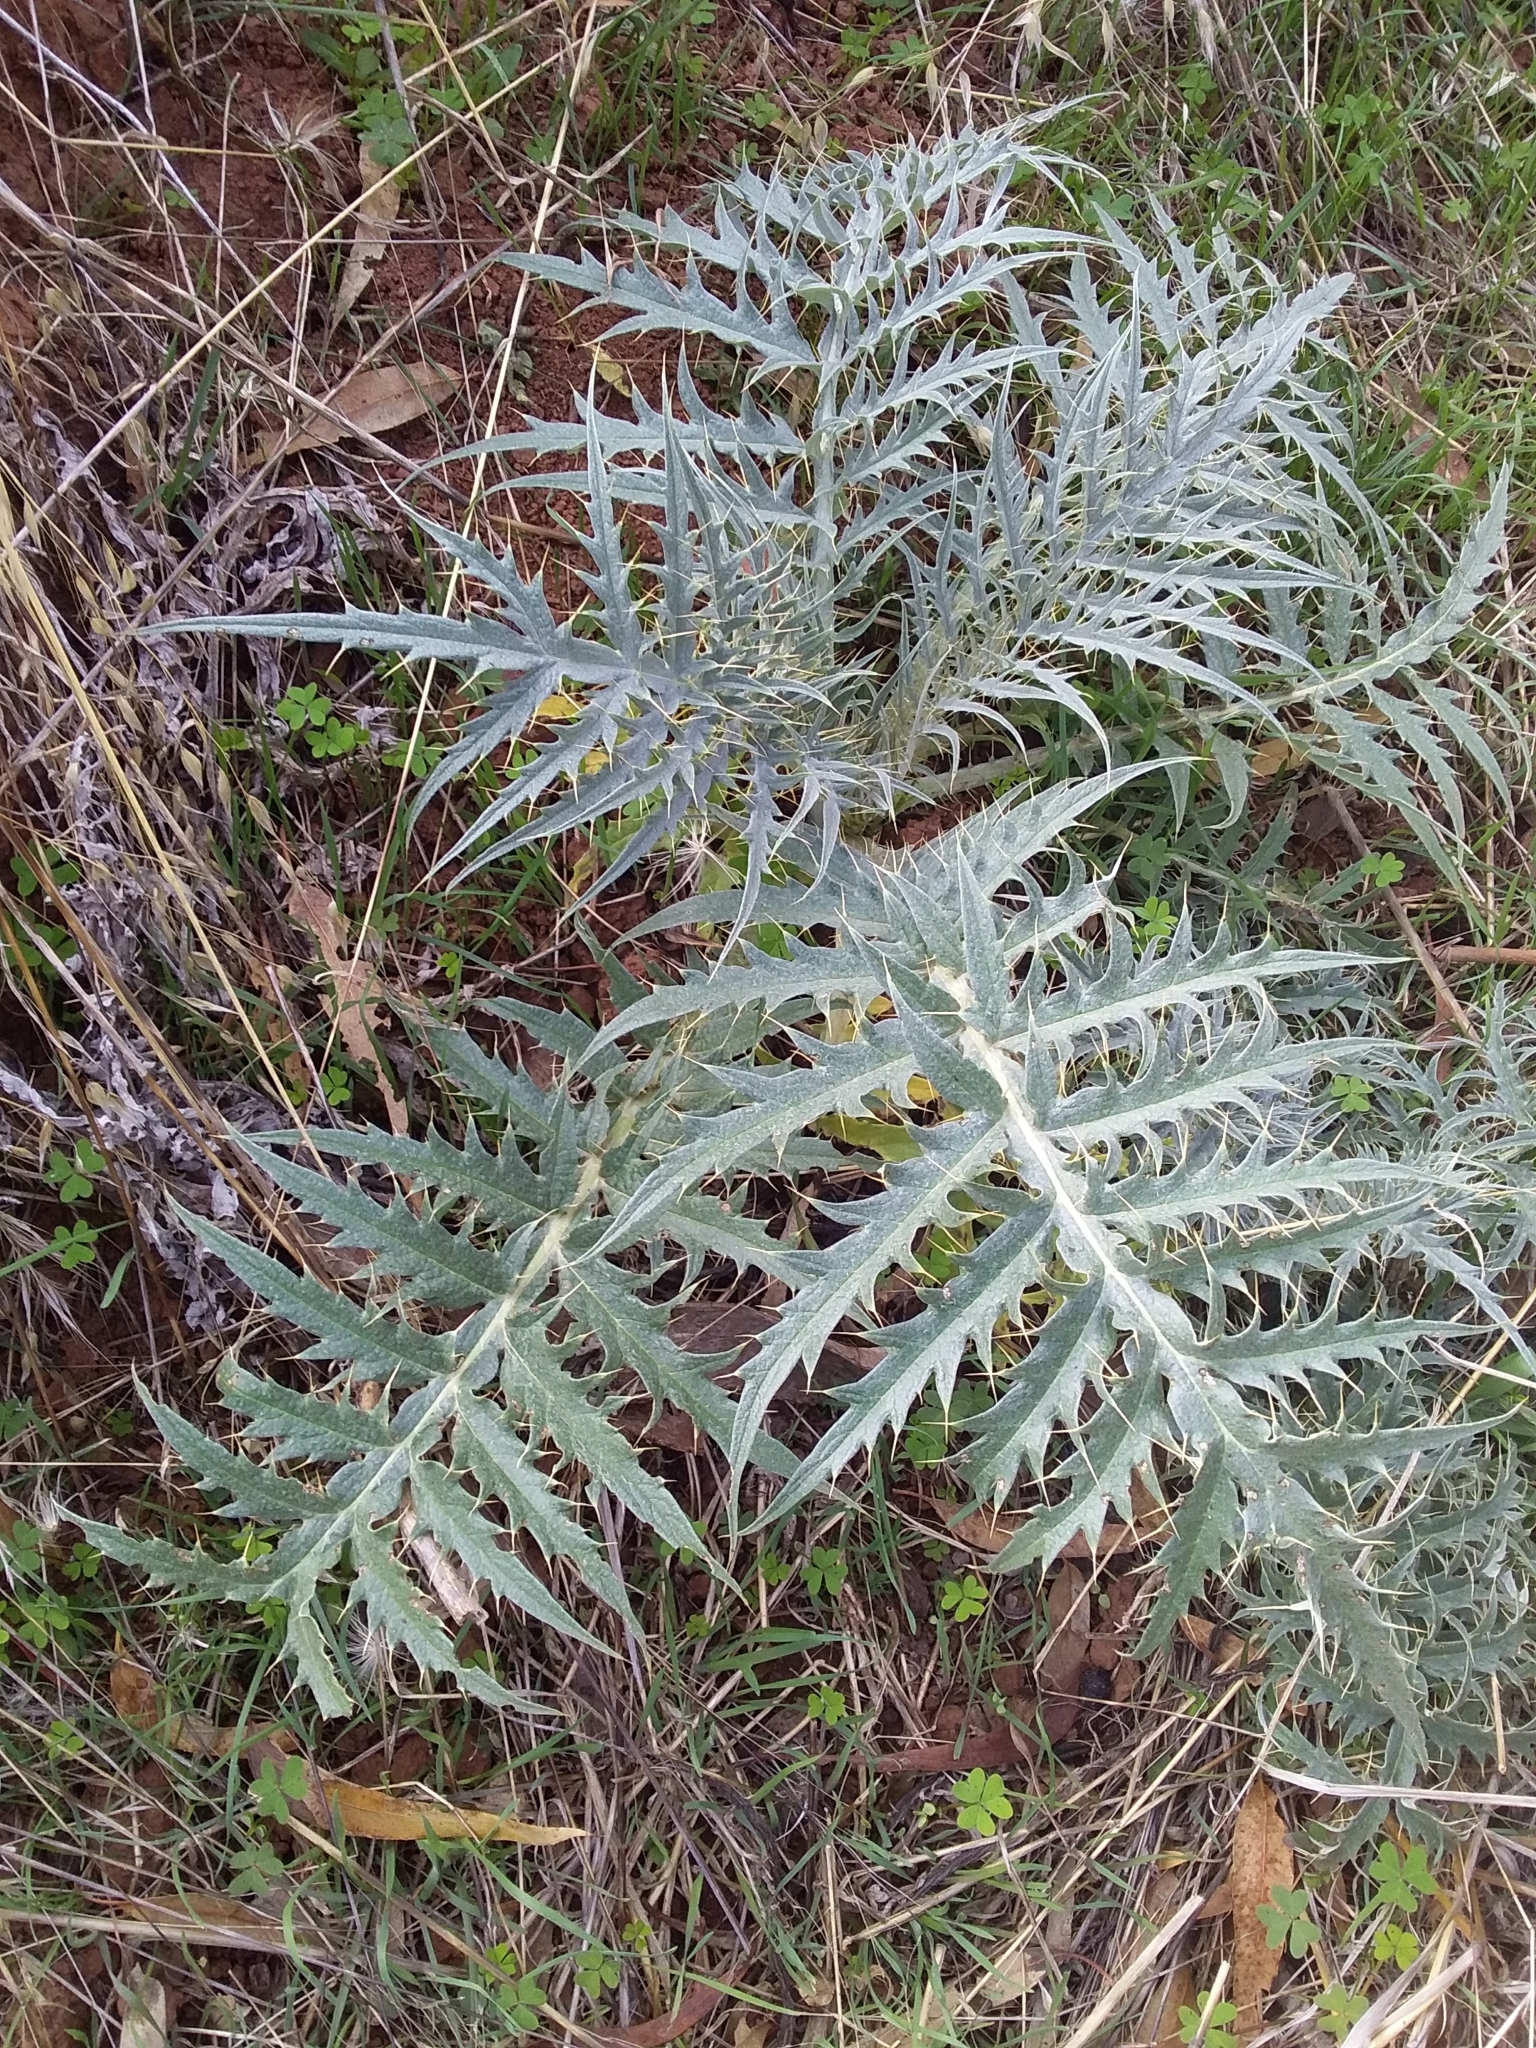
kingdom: Plantae
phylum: Tracheophyta
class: Magnoliopsida
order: Asterales
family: Asteraceae
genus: Cynara
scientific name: Cynara cardunculus
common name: Globe artichoke
